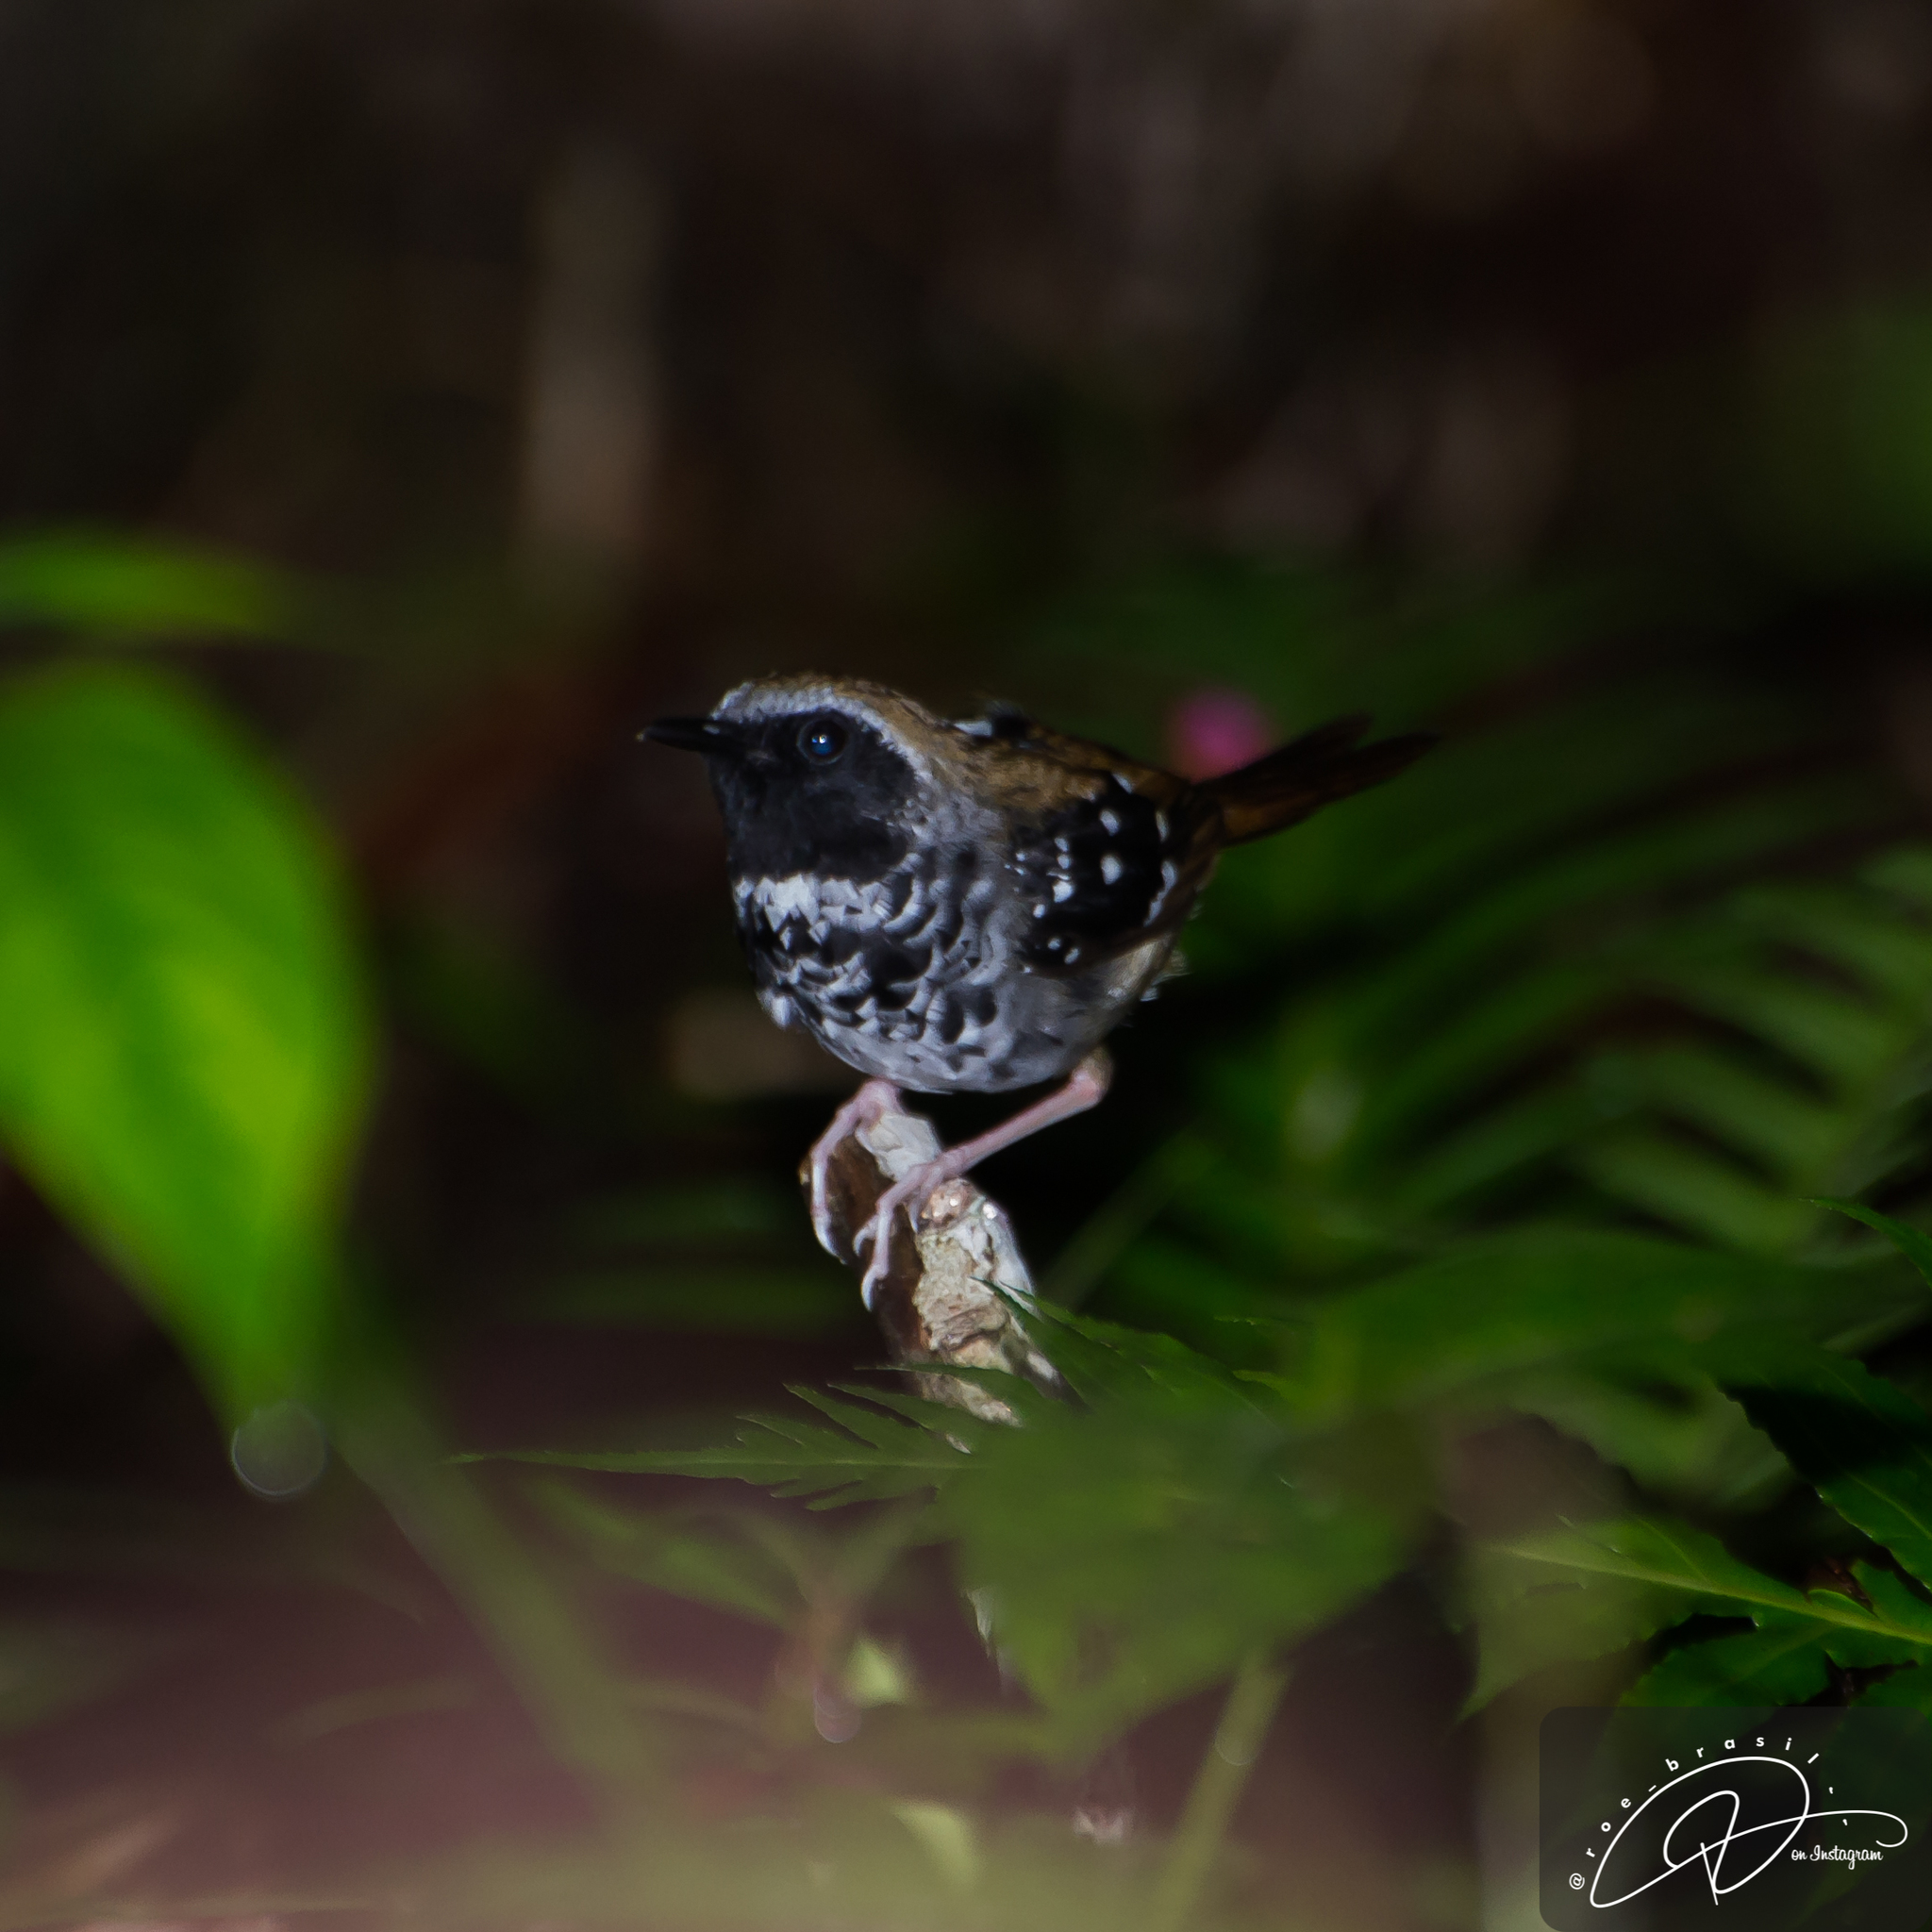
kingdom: Animalia
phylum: Chordata
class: Aves
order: Passeriformes
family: Thamnophilidae
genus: Myrmeciza
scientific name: Myrmeciza squamosa
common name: Squamate antbird
